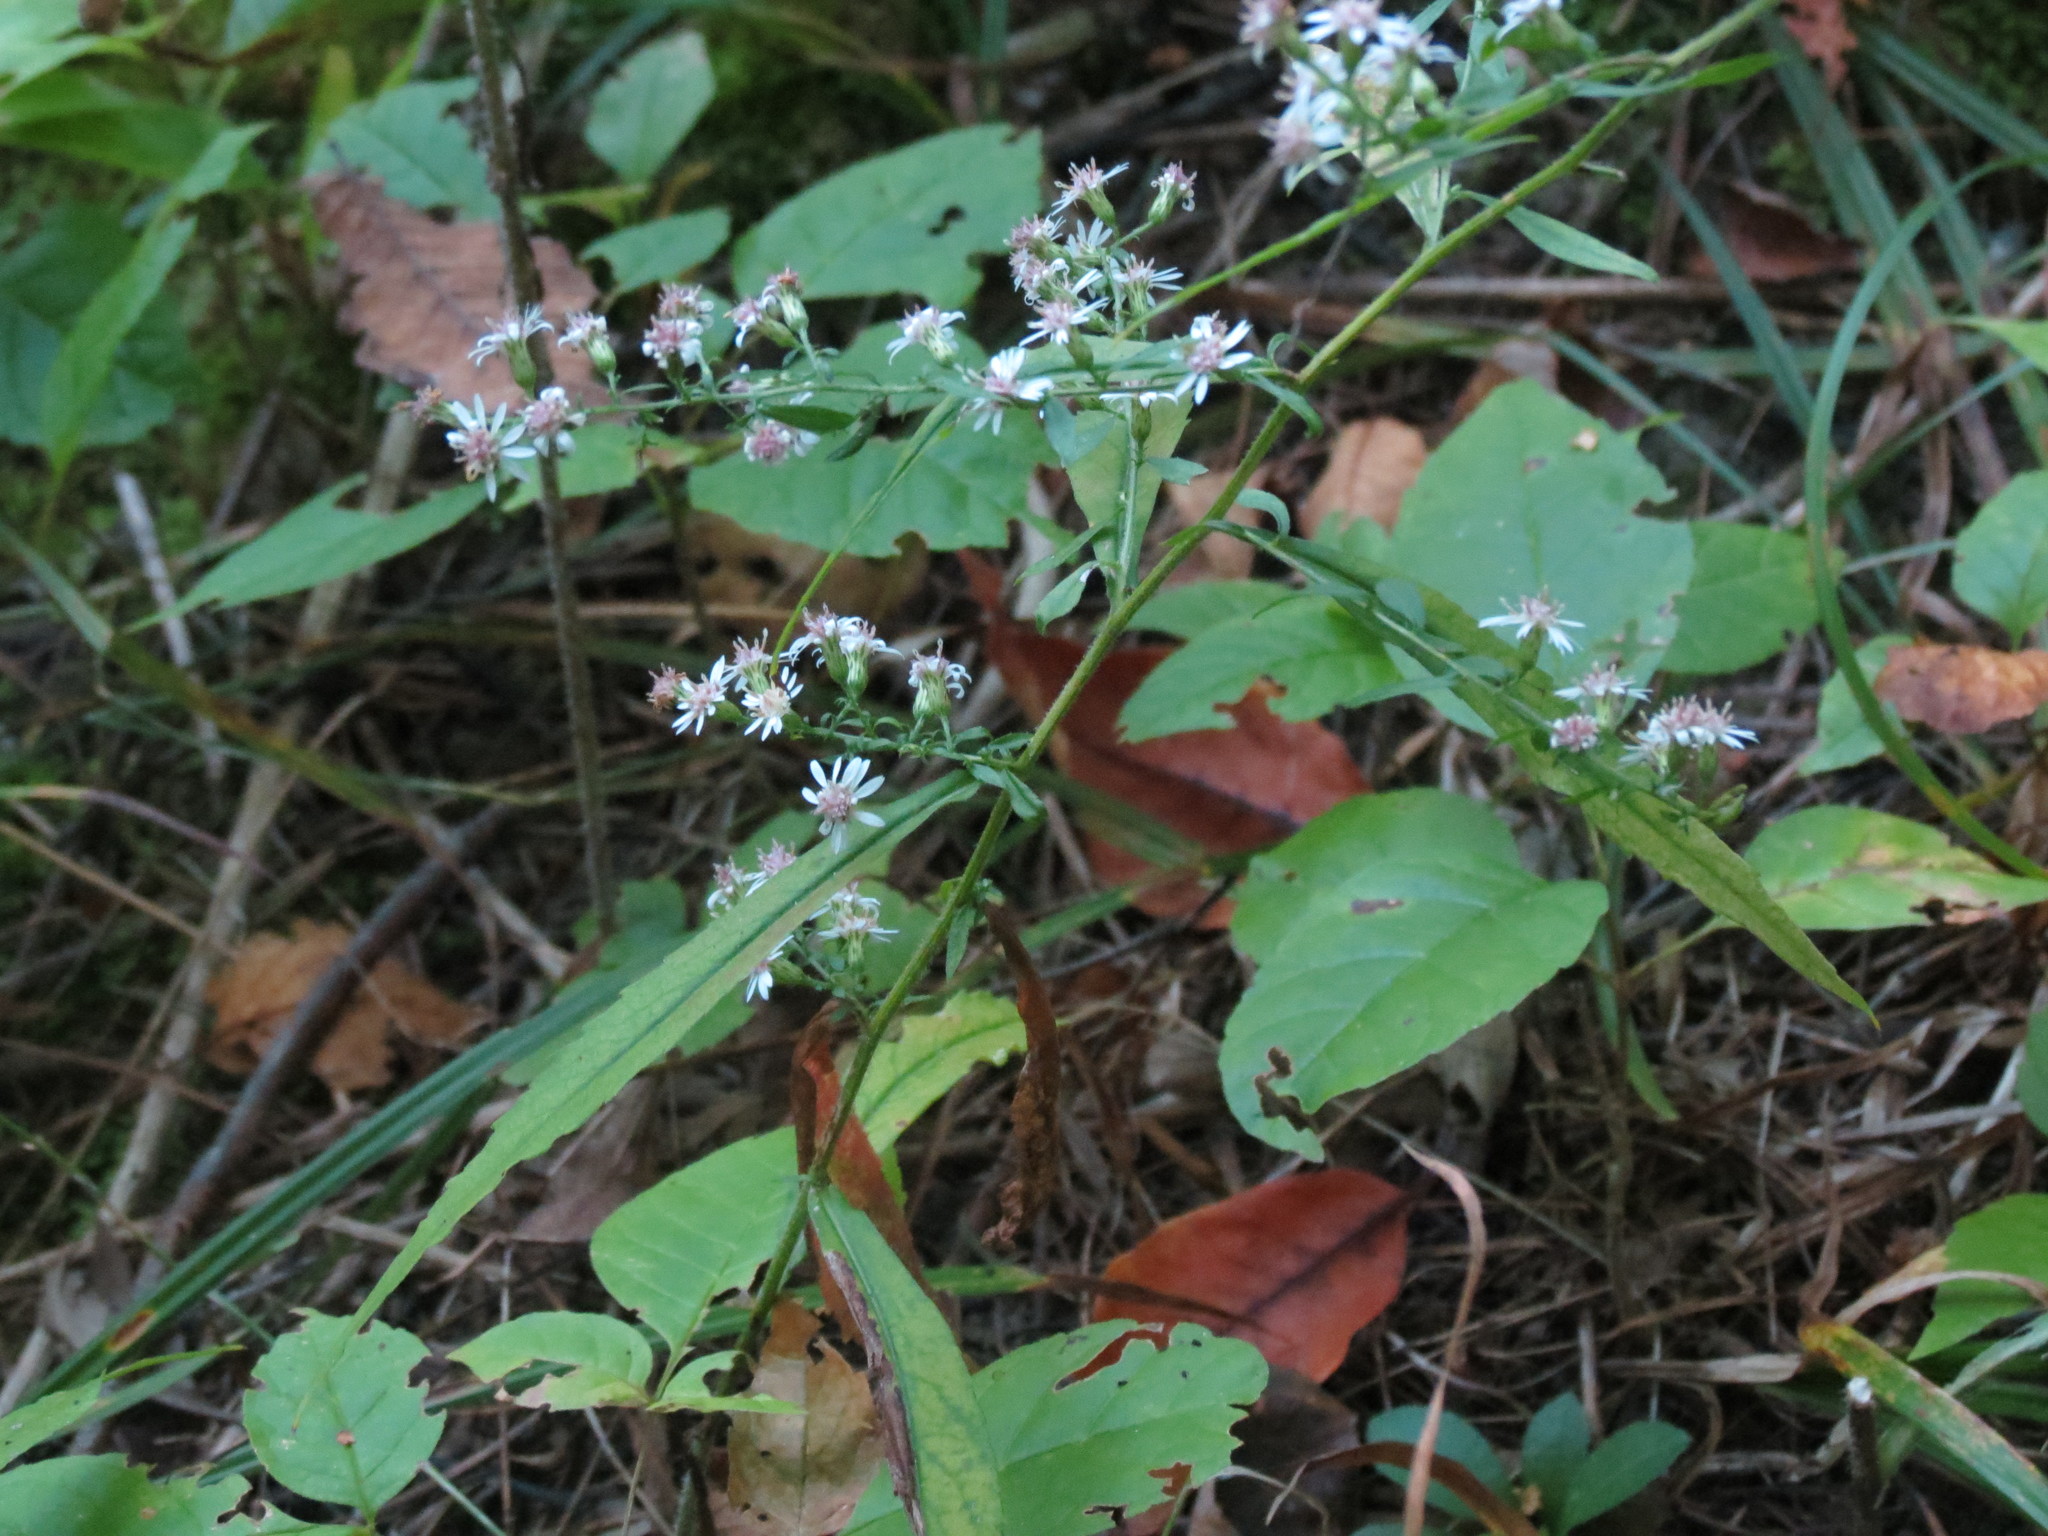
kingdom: Plantae
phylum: Tracheophyta
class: Magnoliopsida
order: Asterales
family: Asteraceae
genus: Symphyotrichum
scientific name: Symphyotrichum lateriflorum
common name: Calico aster
